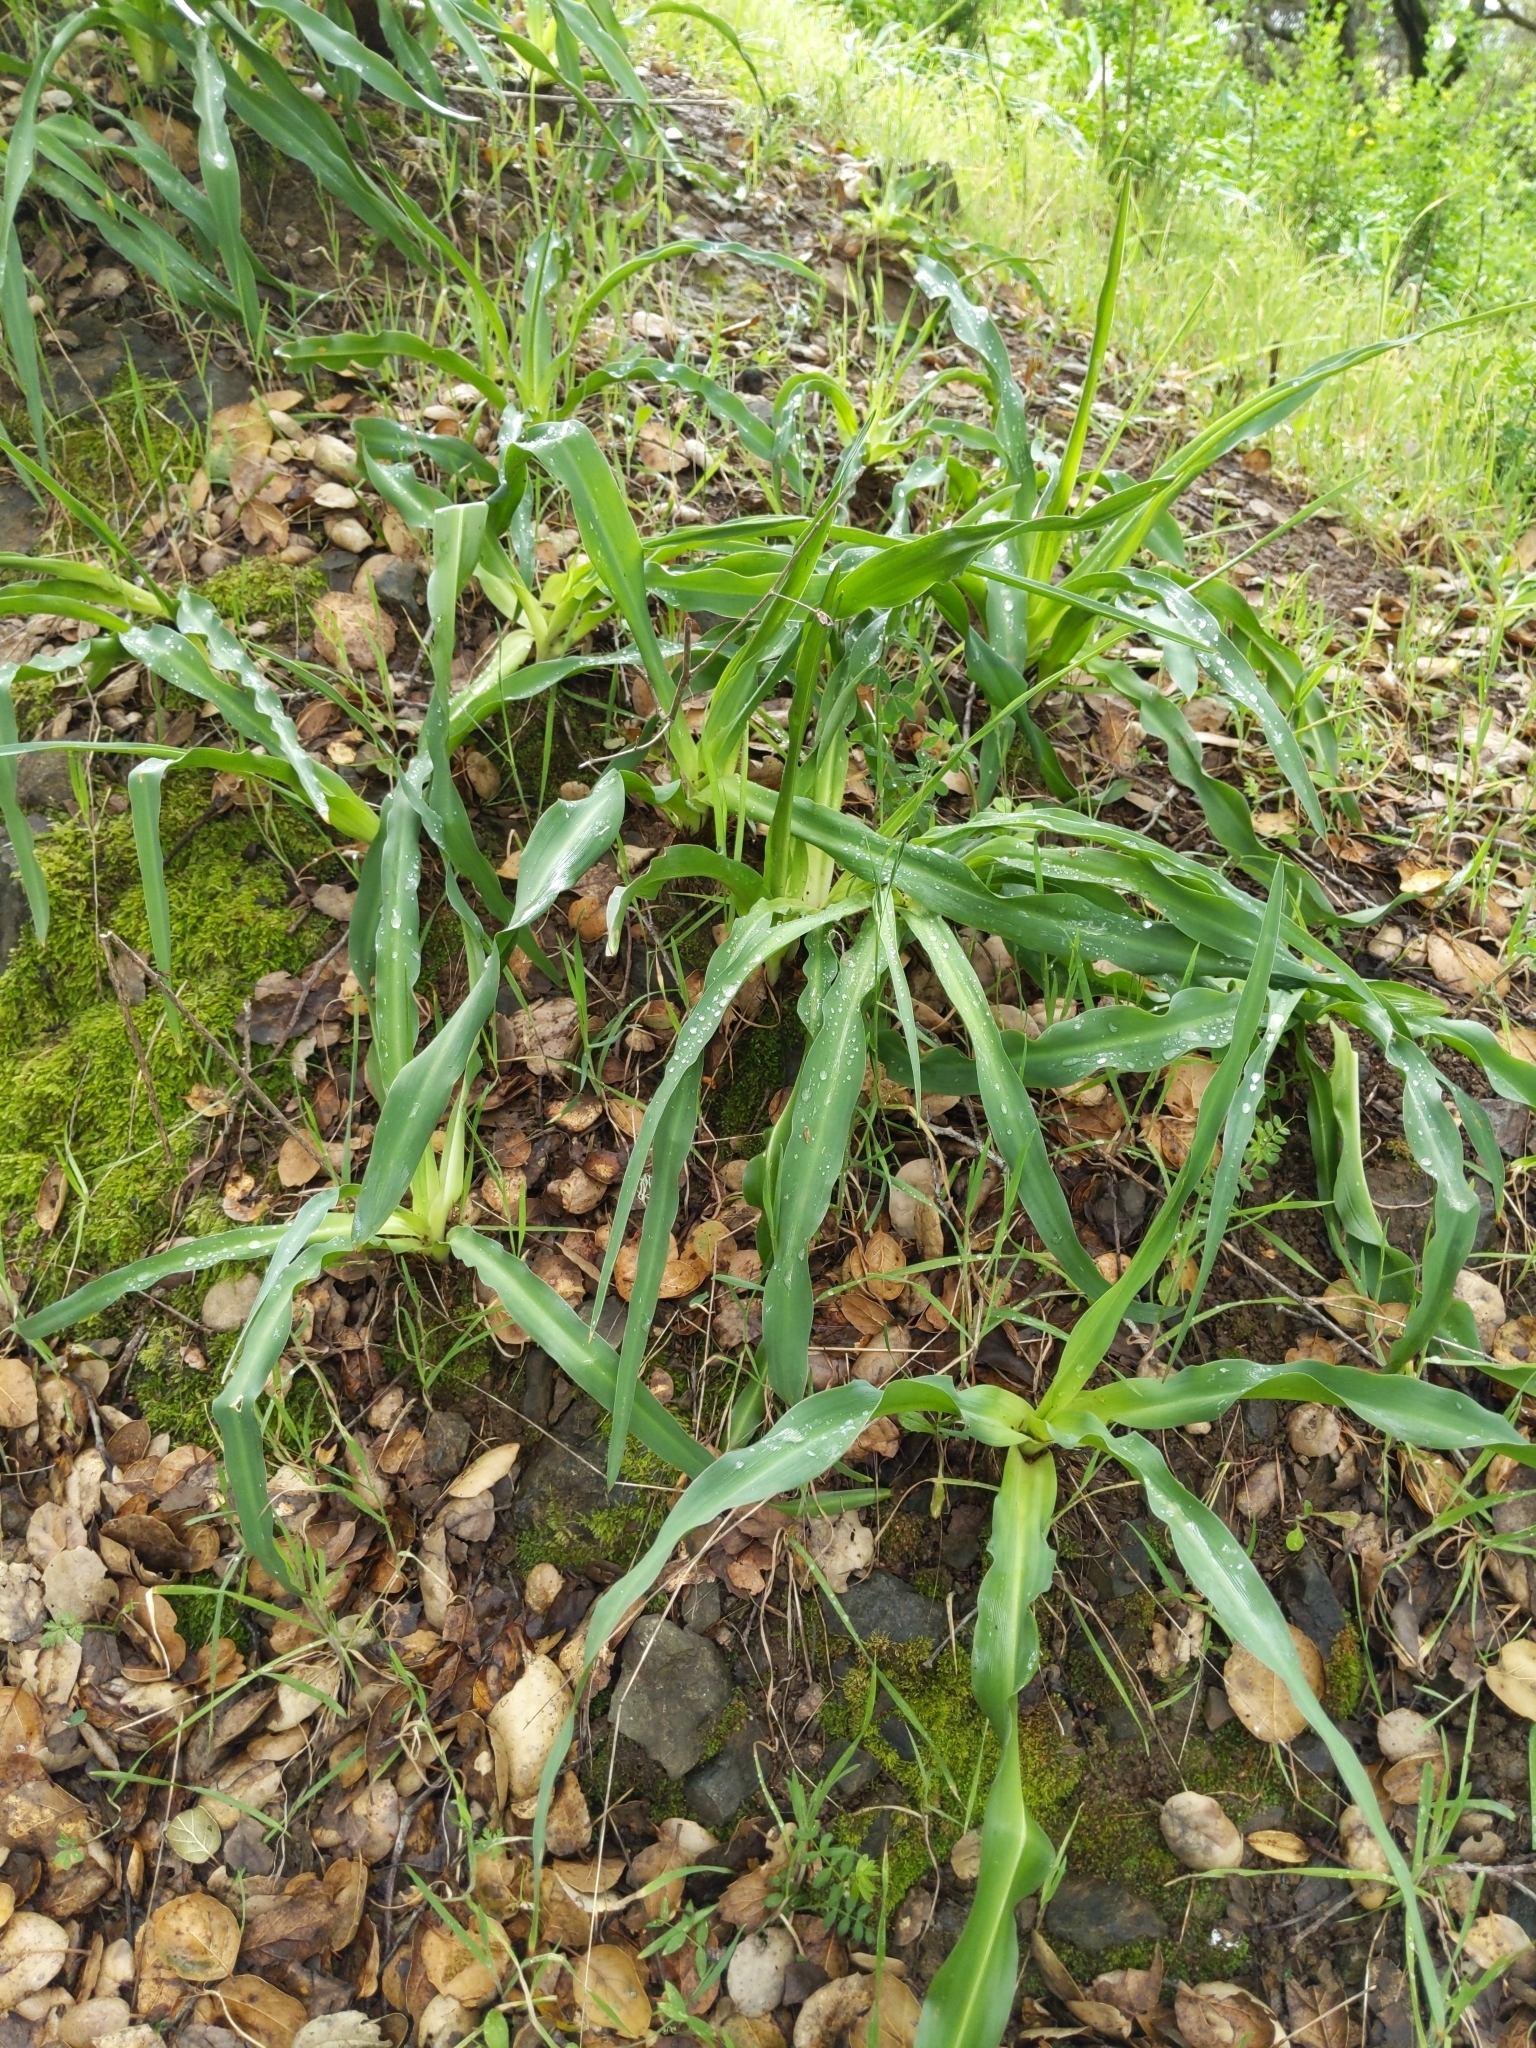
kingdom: Plantae
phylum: Tracheophyta
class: Liliopsida
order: Asparagales
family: Asparagaceae
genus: Chlorogalum
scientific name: Chlorogalum pomeridianum
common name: Amole
